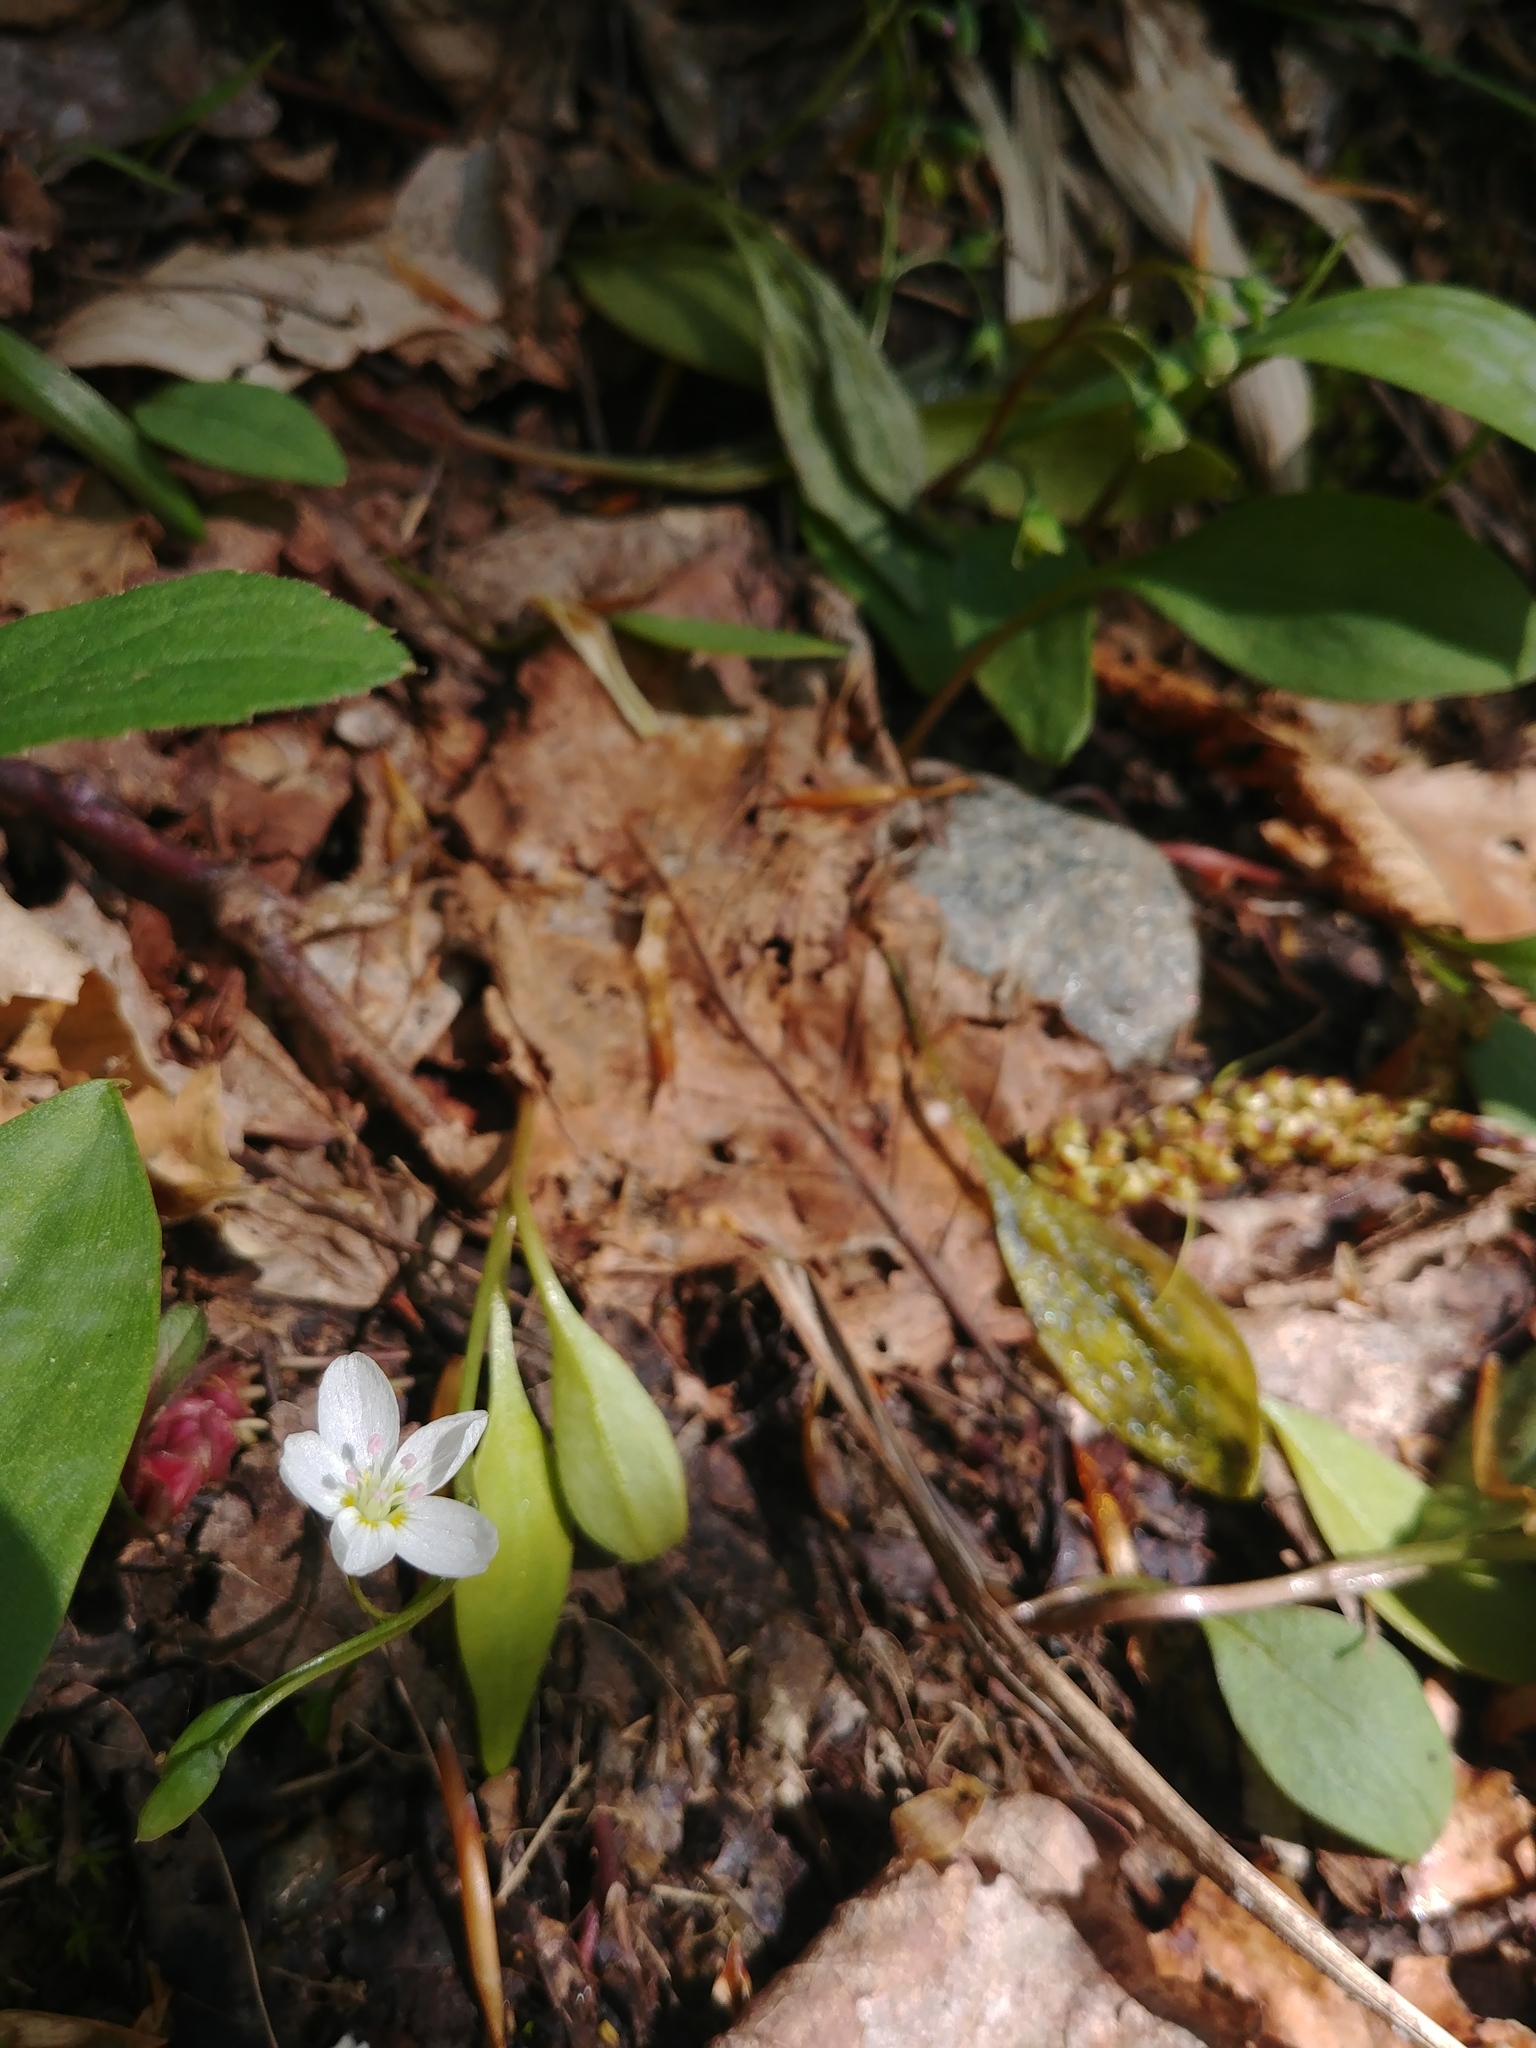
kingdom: Plantae
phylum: Tracheophyta
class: Magnoliopsida
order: Caryophyllales
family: Montiaceae
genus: Claytonia
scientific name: Claytonia caroliniana
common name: Carolina spring beauty
